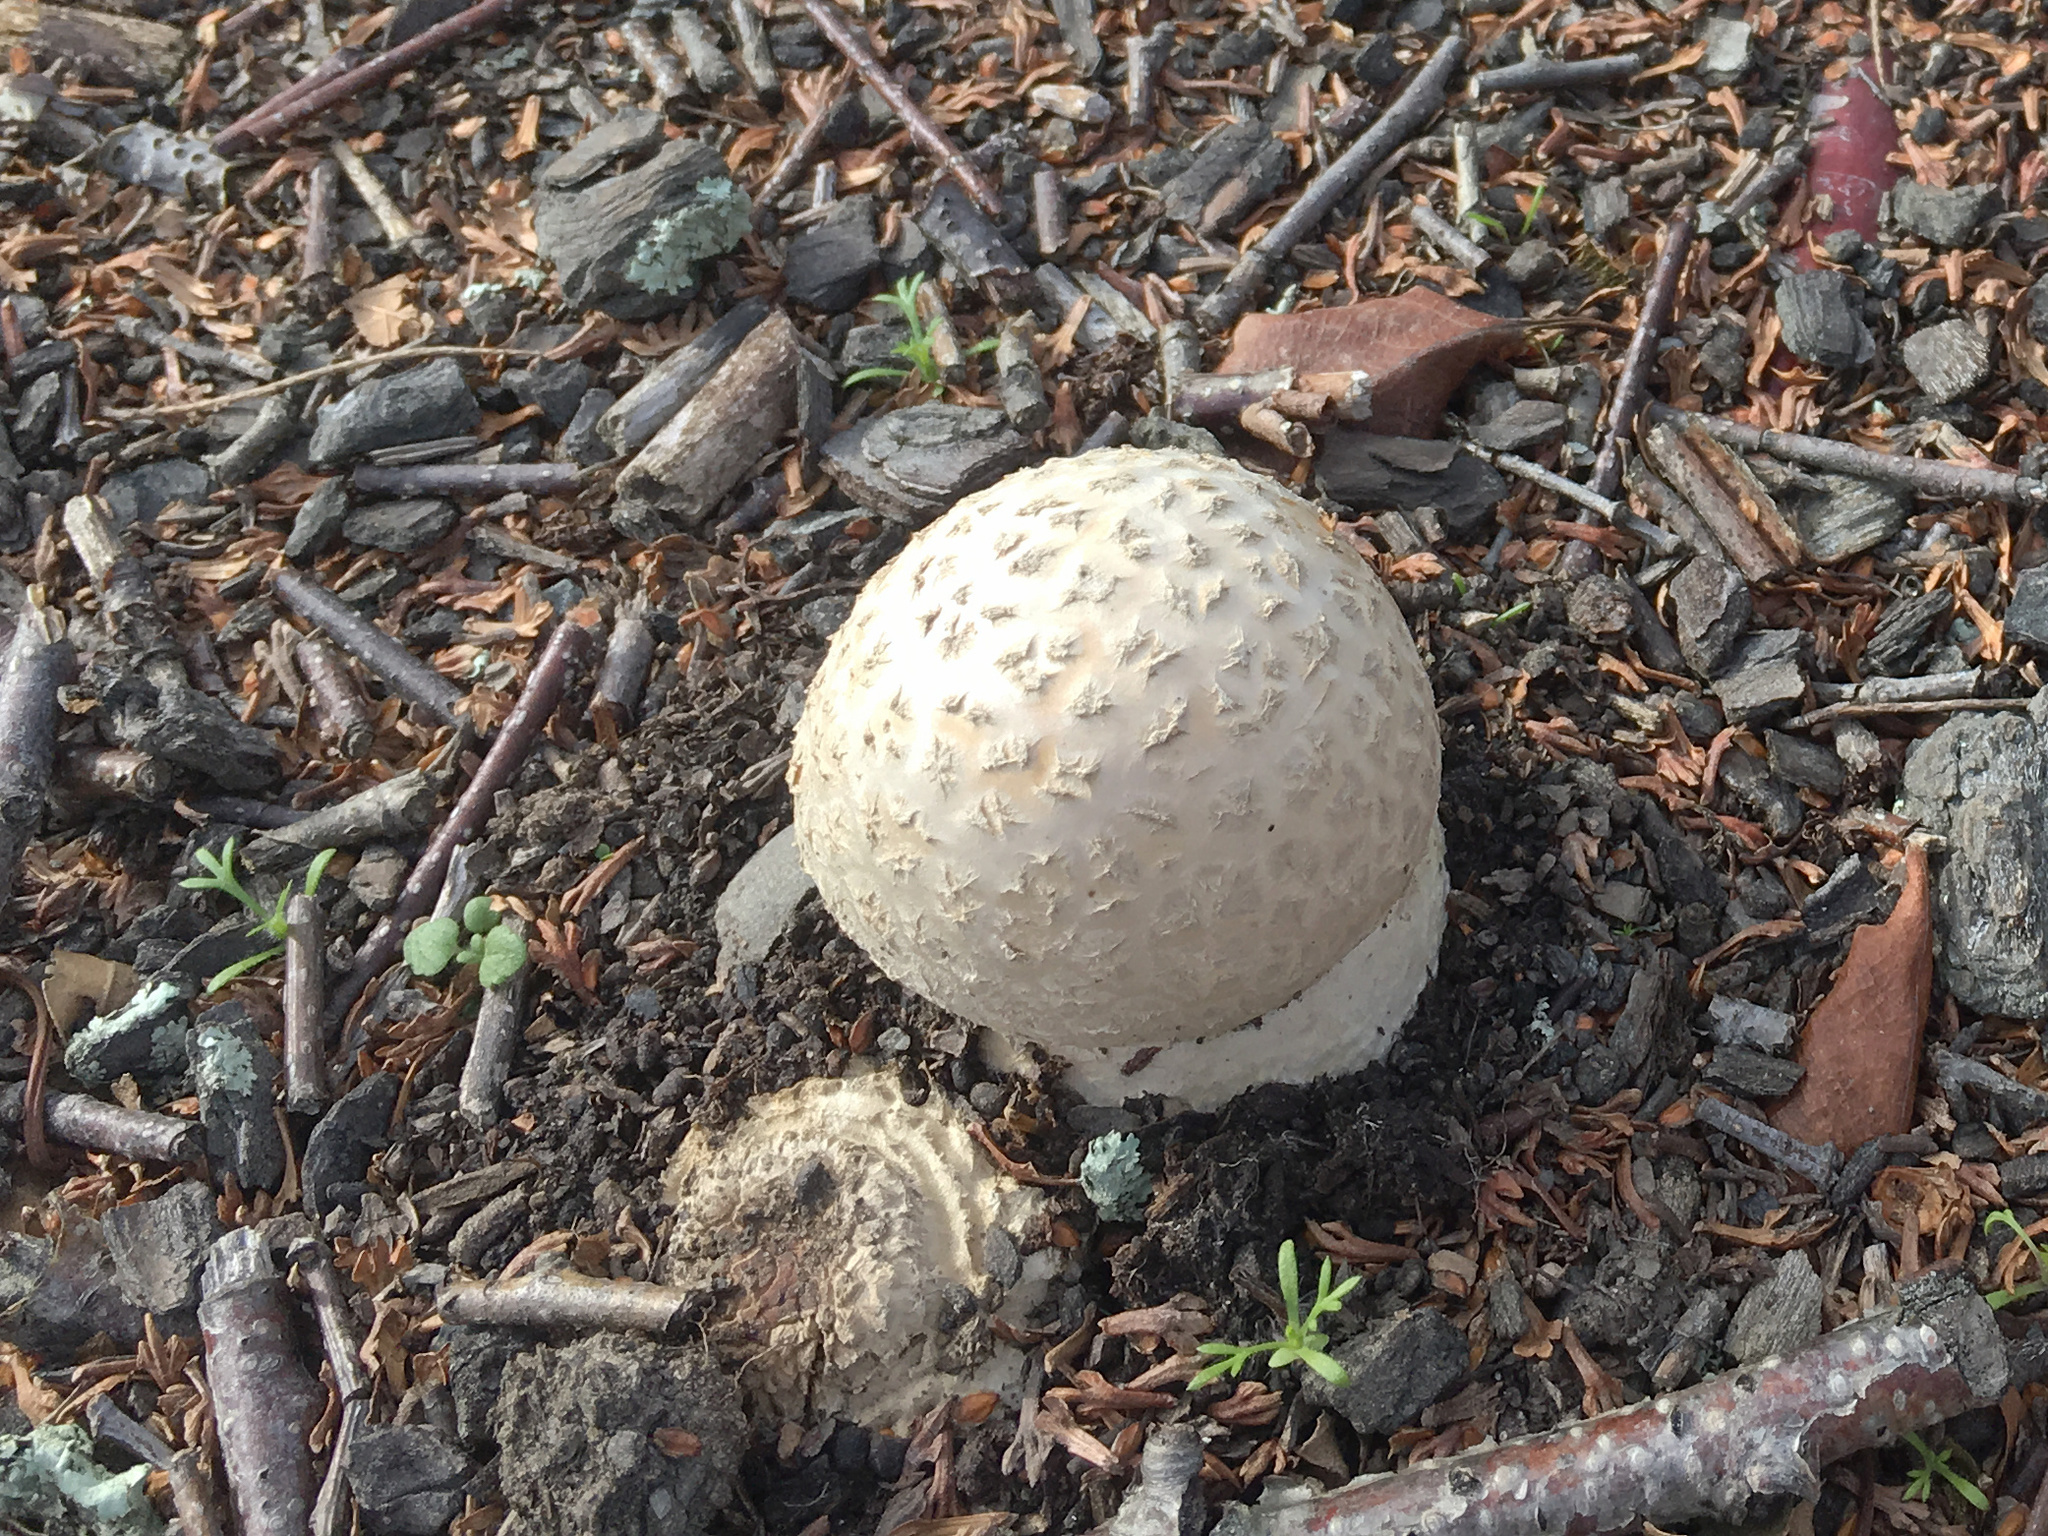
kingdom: Fungi
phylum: Basidiomycota
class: Agaricomycetes
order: Agaricales
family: Amanitaceae
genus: Amanita
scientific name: Amanita muscaria
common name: Fly agaric
